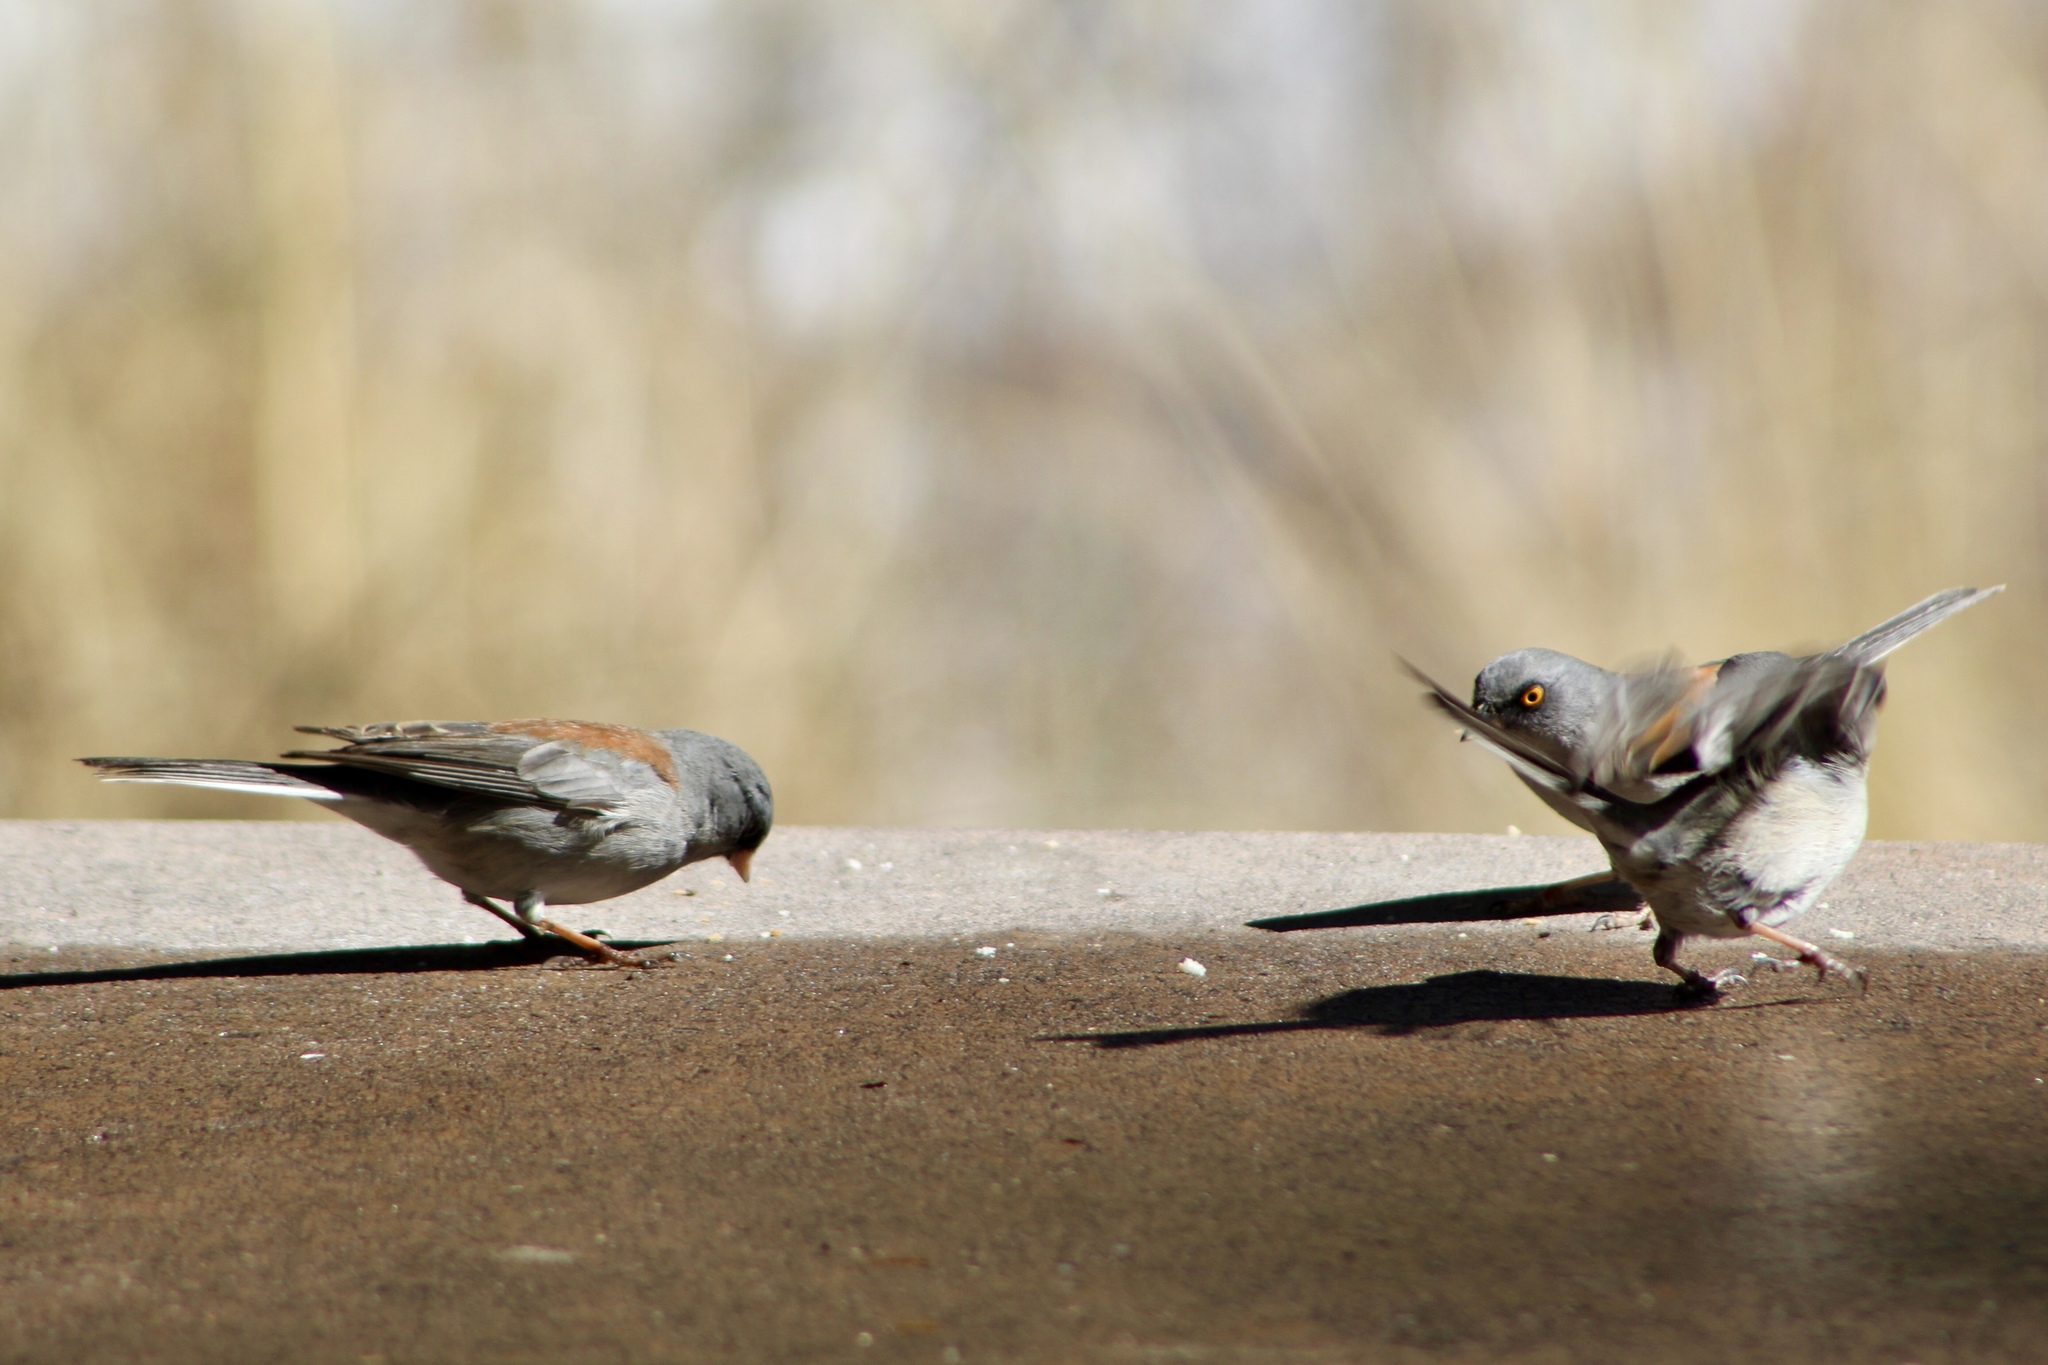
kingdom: Animalia
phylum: Chordata
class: Aves
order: Passeriformes
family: Passerellidae
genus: Junco
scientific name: Junco phaeonotus
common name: Yellow-eyed junco
